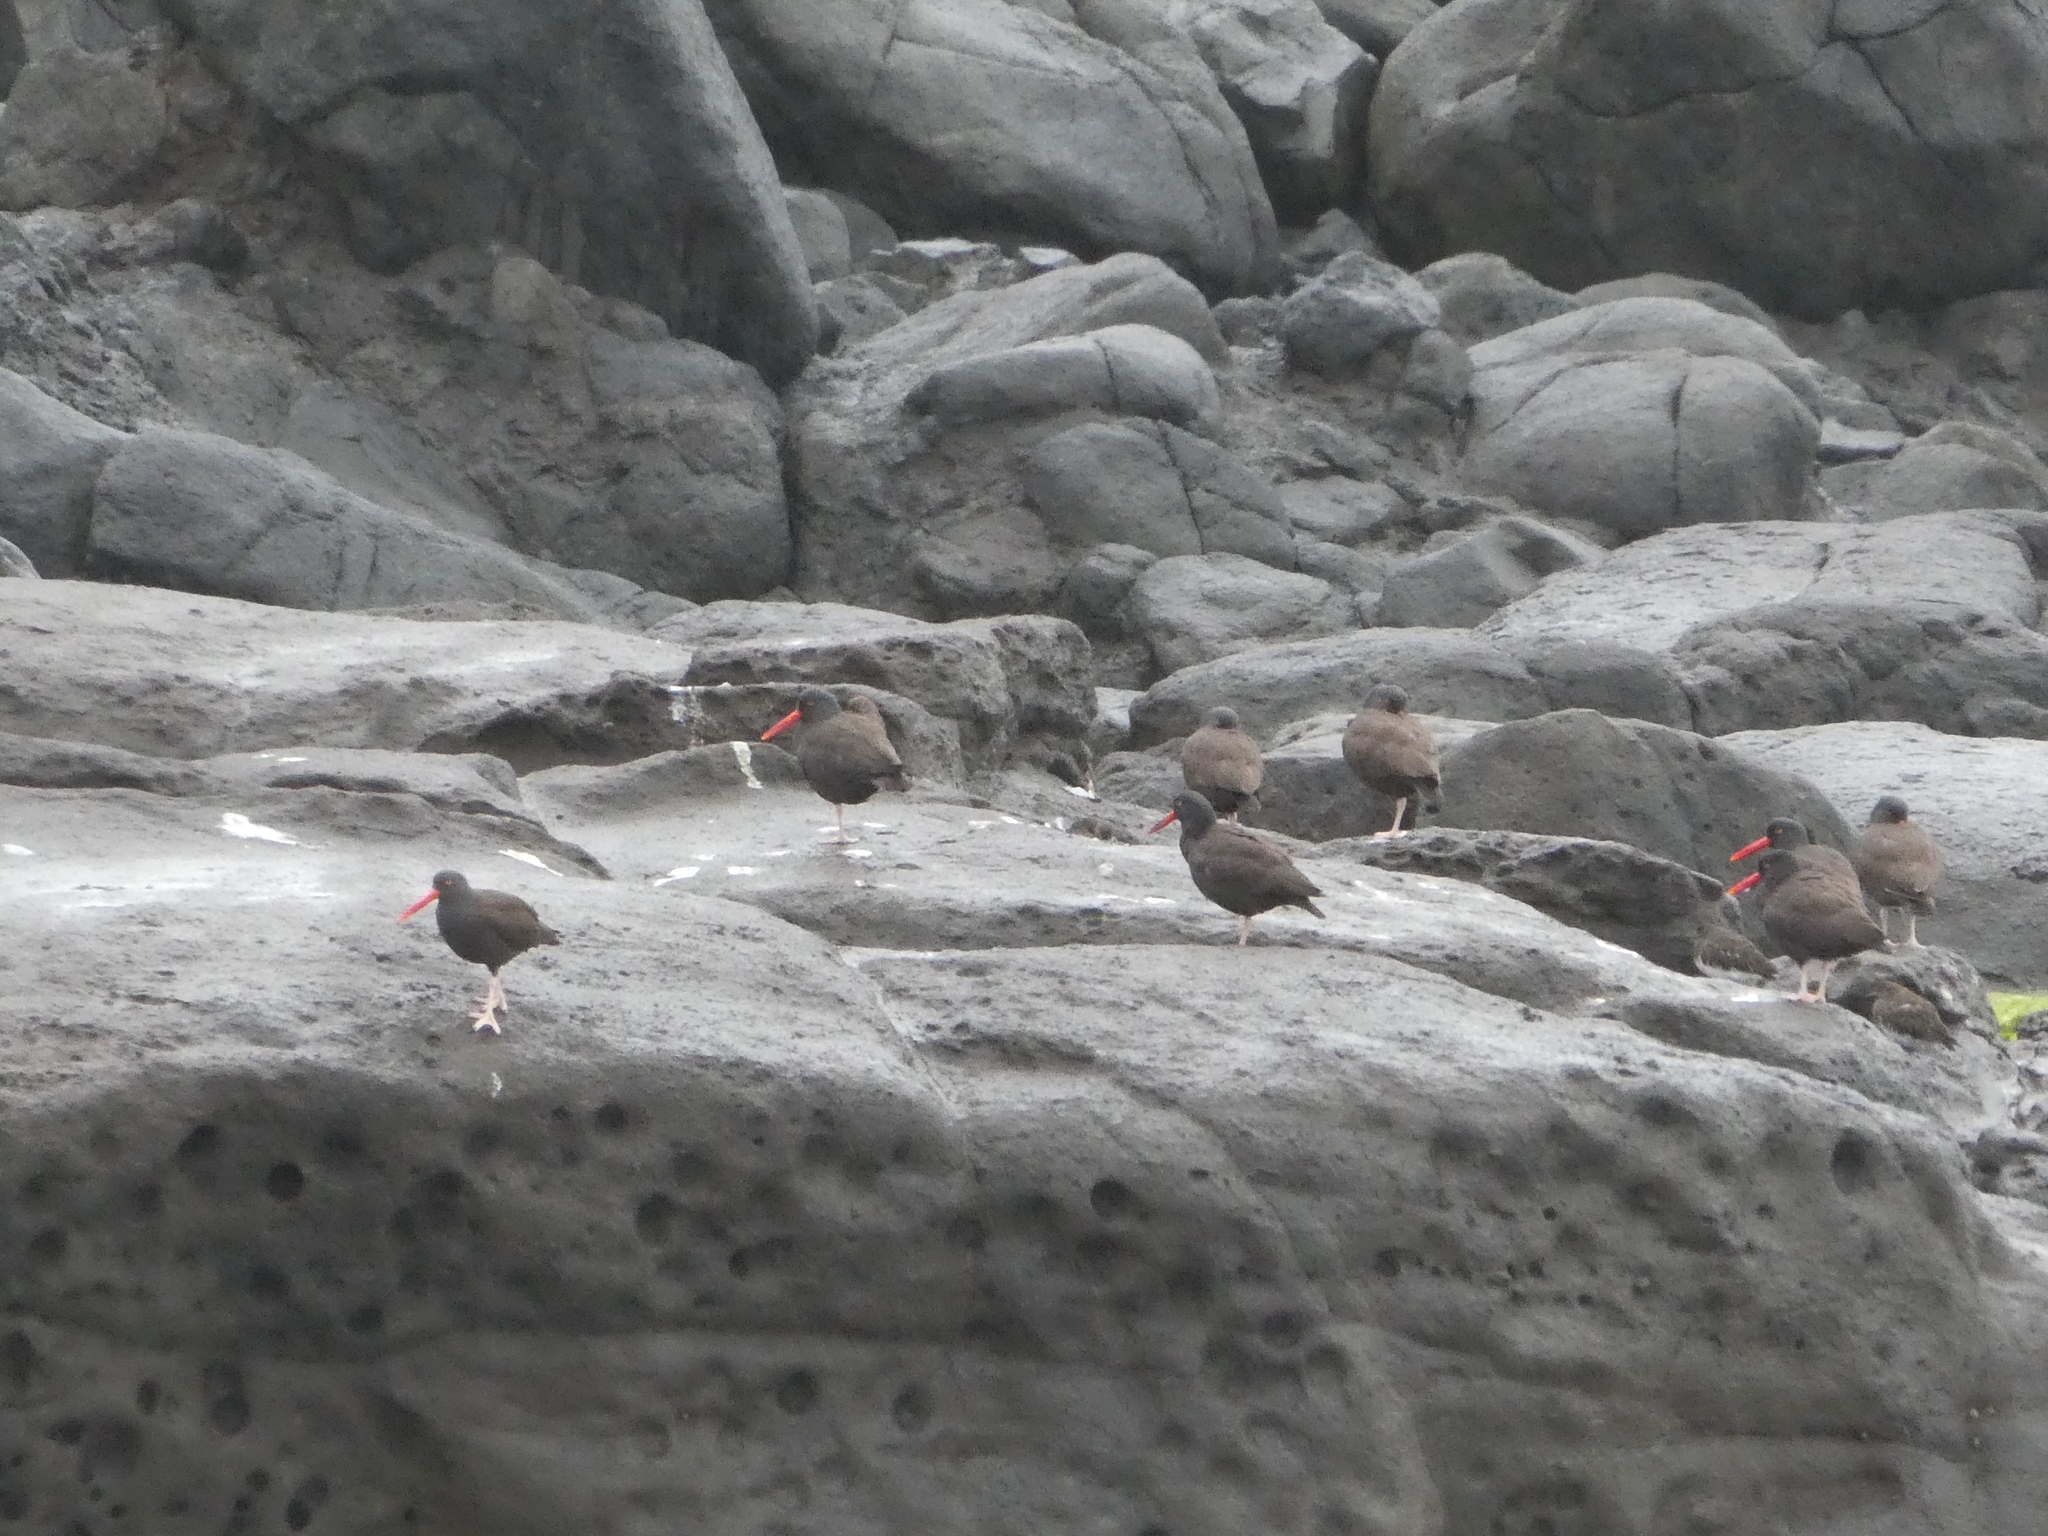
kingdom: Animalia
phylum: Chordata
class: Aves
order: Charadriiformes
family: Haematopodidae
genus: Haematopus
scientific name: Haematopus bachmani
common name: Black oystercatcher
